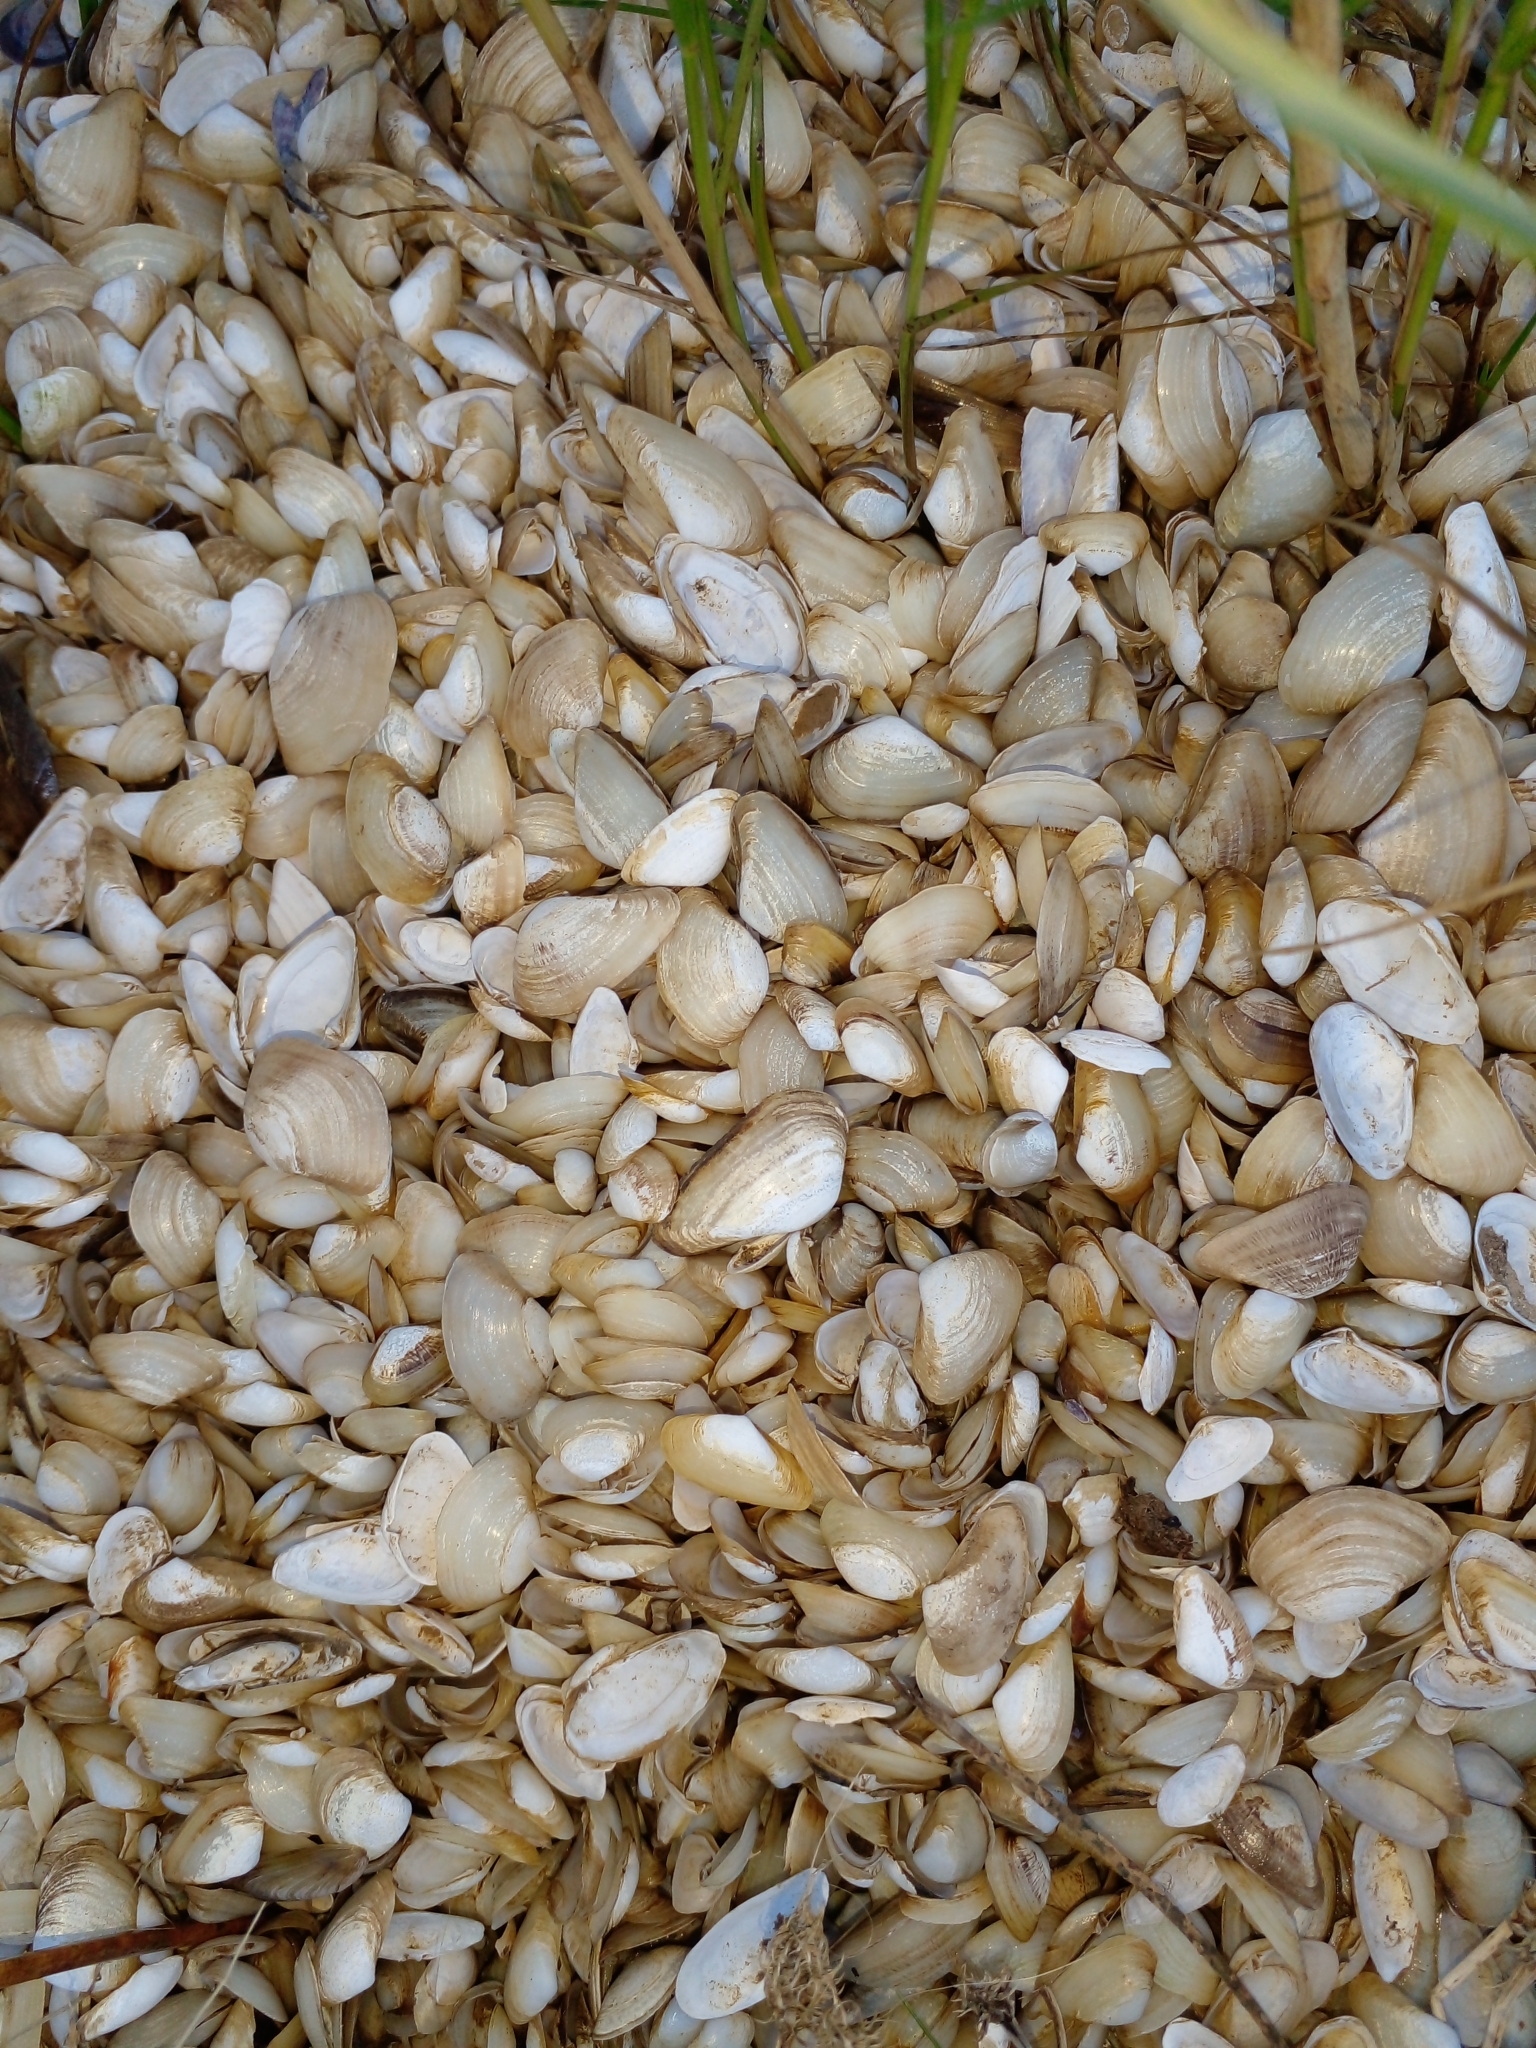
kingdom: Animalia
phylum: Mollusca
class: Bivalvia
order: Myida
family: Corbulidae
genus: Erodona
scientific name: Erodona mactroides
